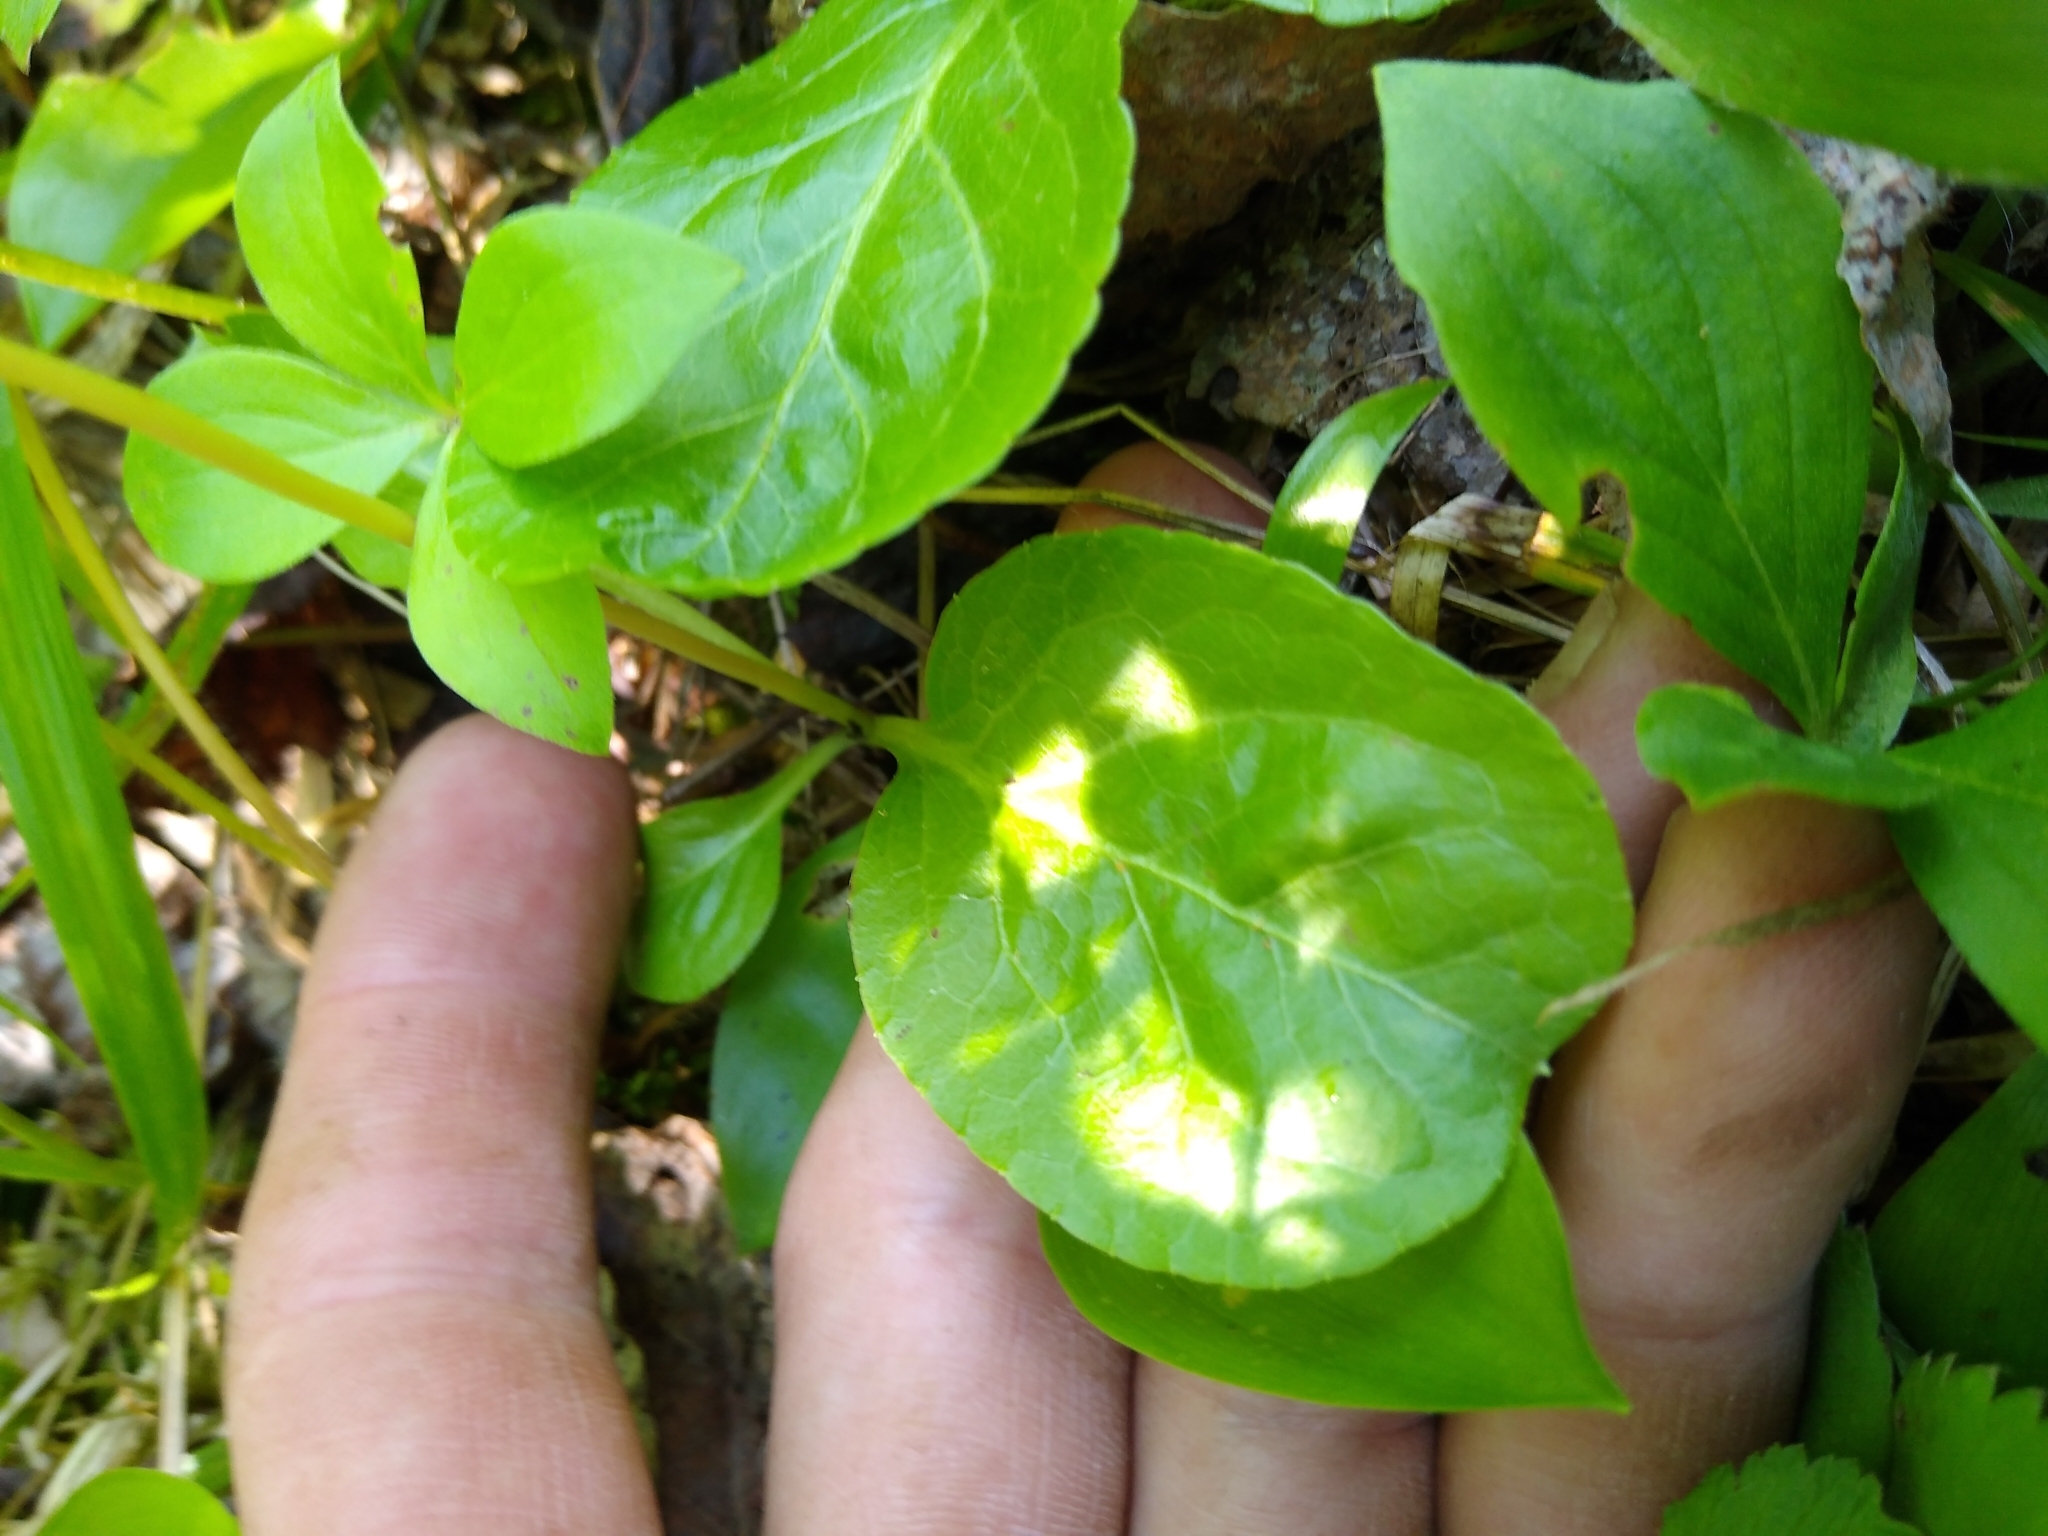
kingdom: Plantae
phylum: Tracheophyta
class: Magnoliopsida
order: Ericales
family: Ericaceae
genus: Pyrola
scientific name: Pyrola elliptica
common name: Shinleaf
